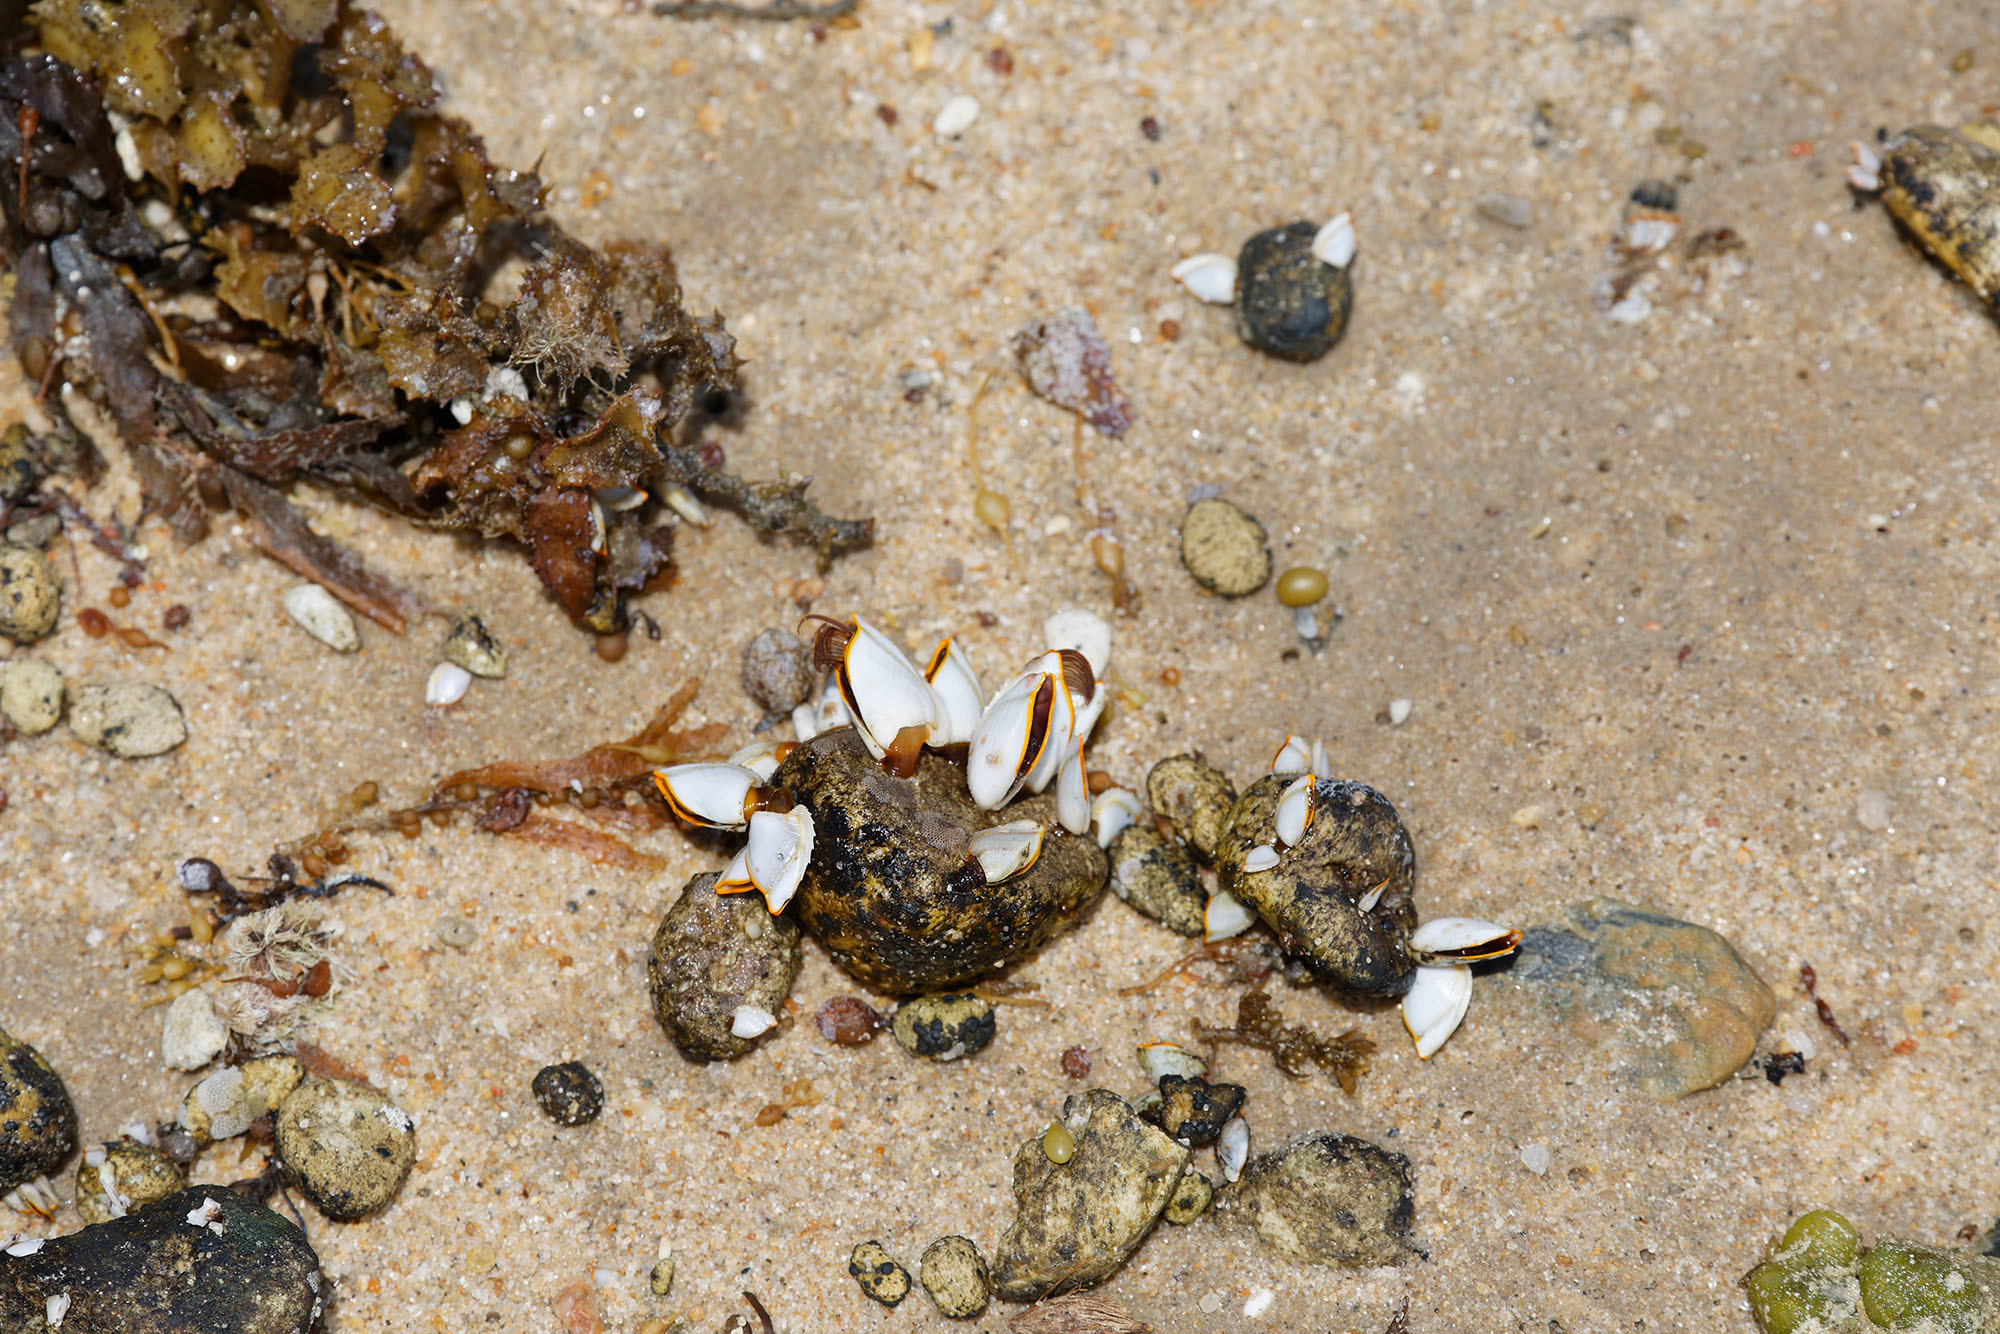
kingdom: Animalia
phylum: Arthropoda
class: Maxillopoda
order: Pedunculata
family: Lepadidae
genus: Lepas
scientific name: Lepas anserifera
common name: Goose barnacle
